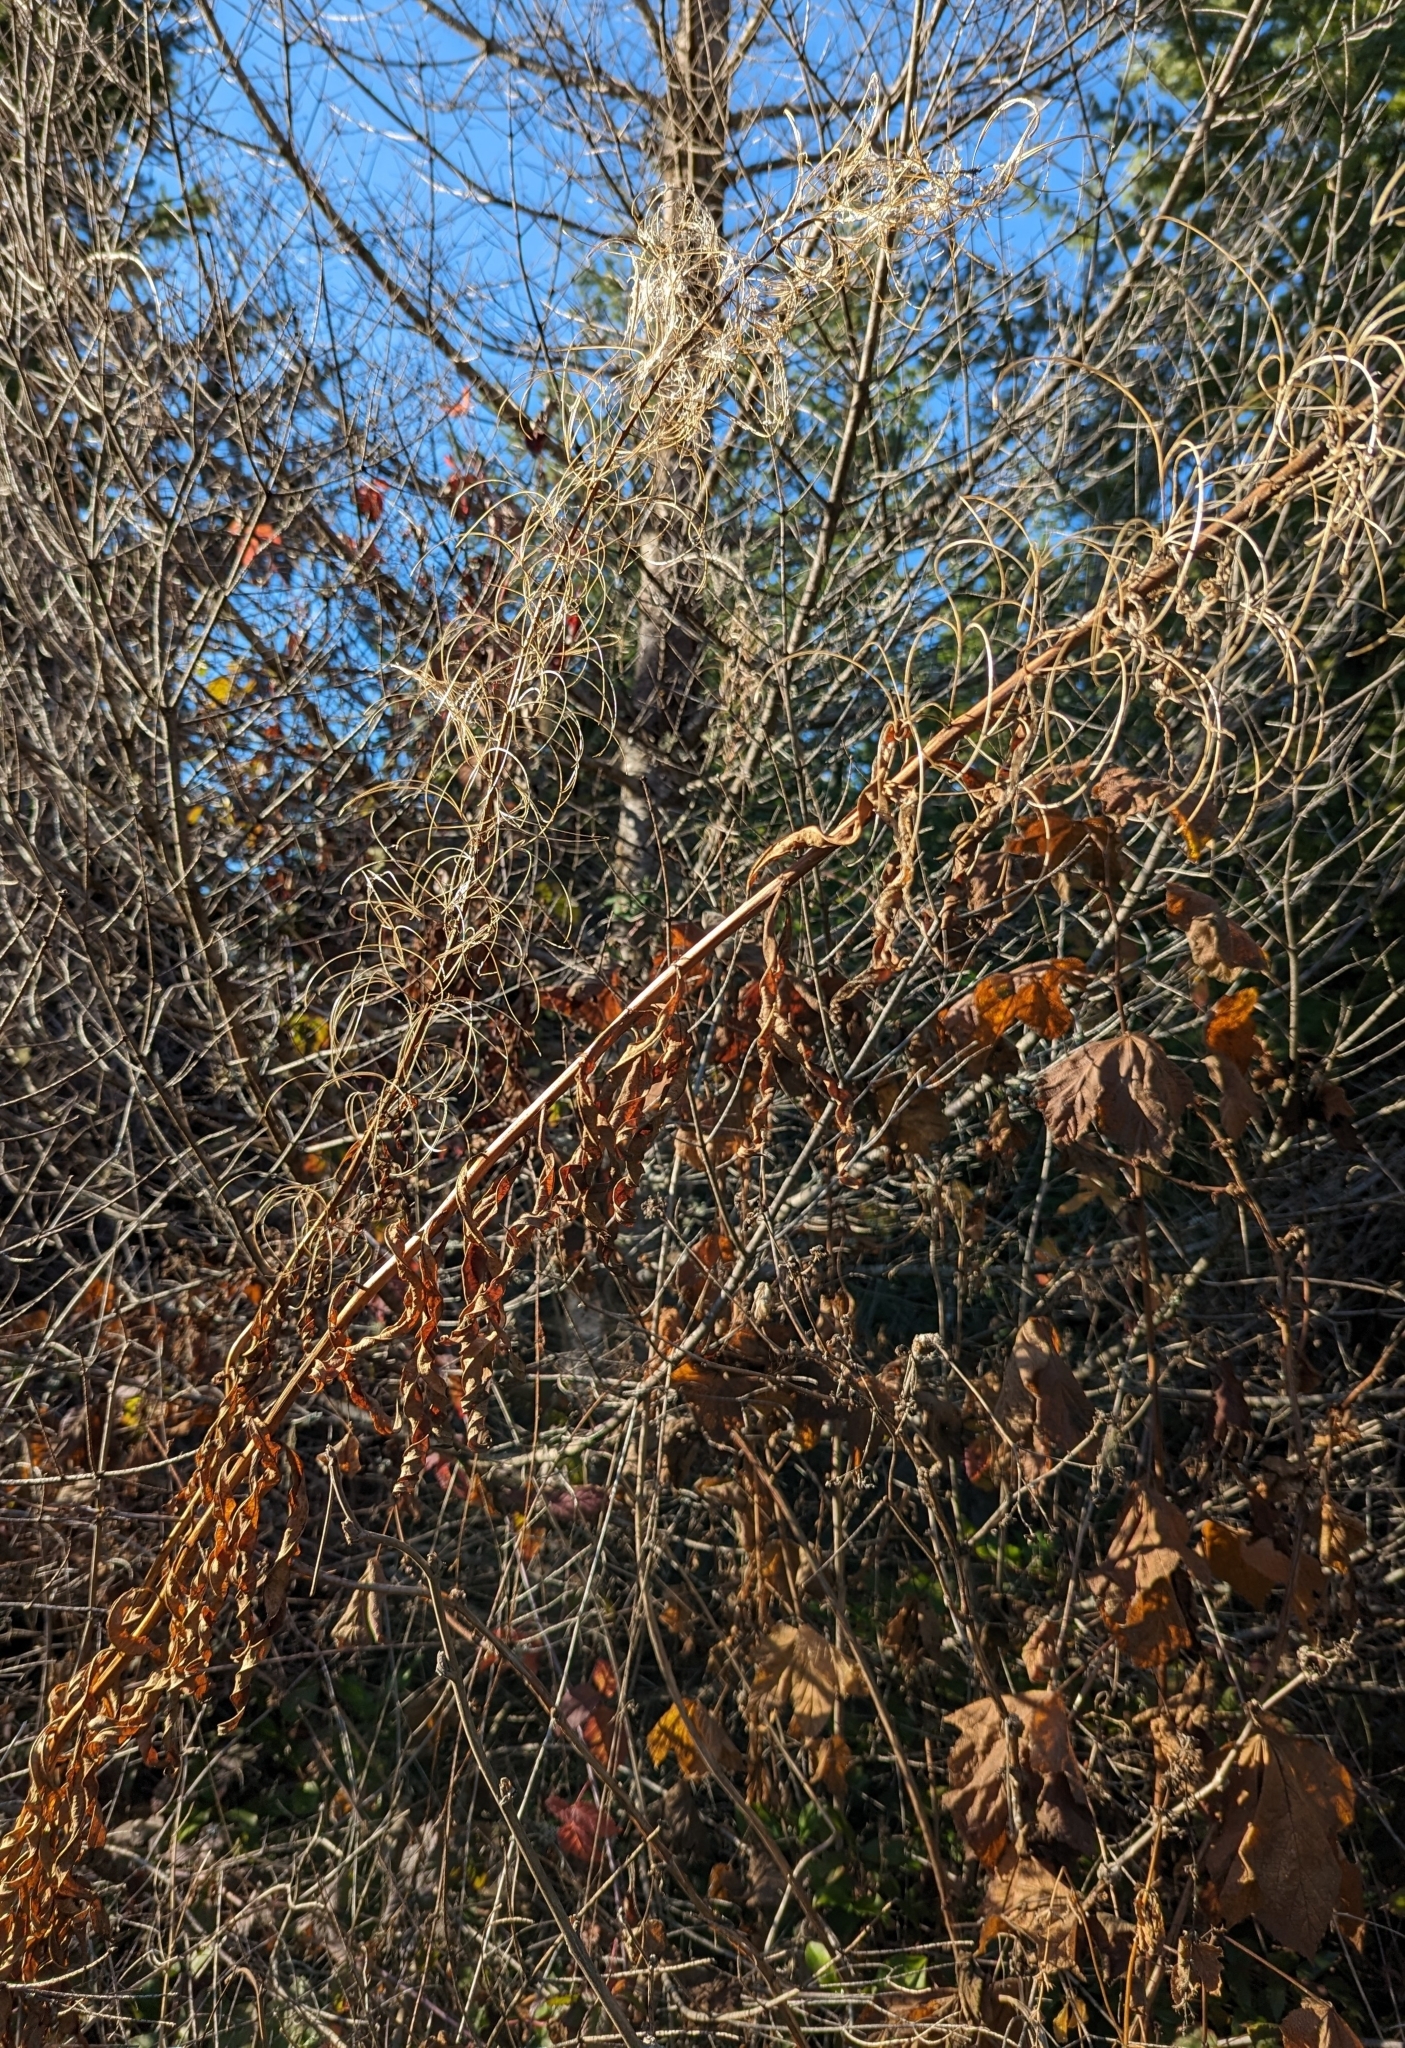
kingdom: Plantae
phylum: Tracheophyta
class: Magnoliopsida
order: Myrtales
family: Onagraceae
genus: Chamaenerion
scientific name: Chamaenerion angustifolium
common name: Fireweed
